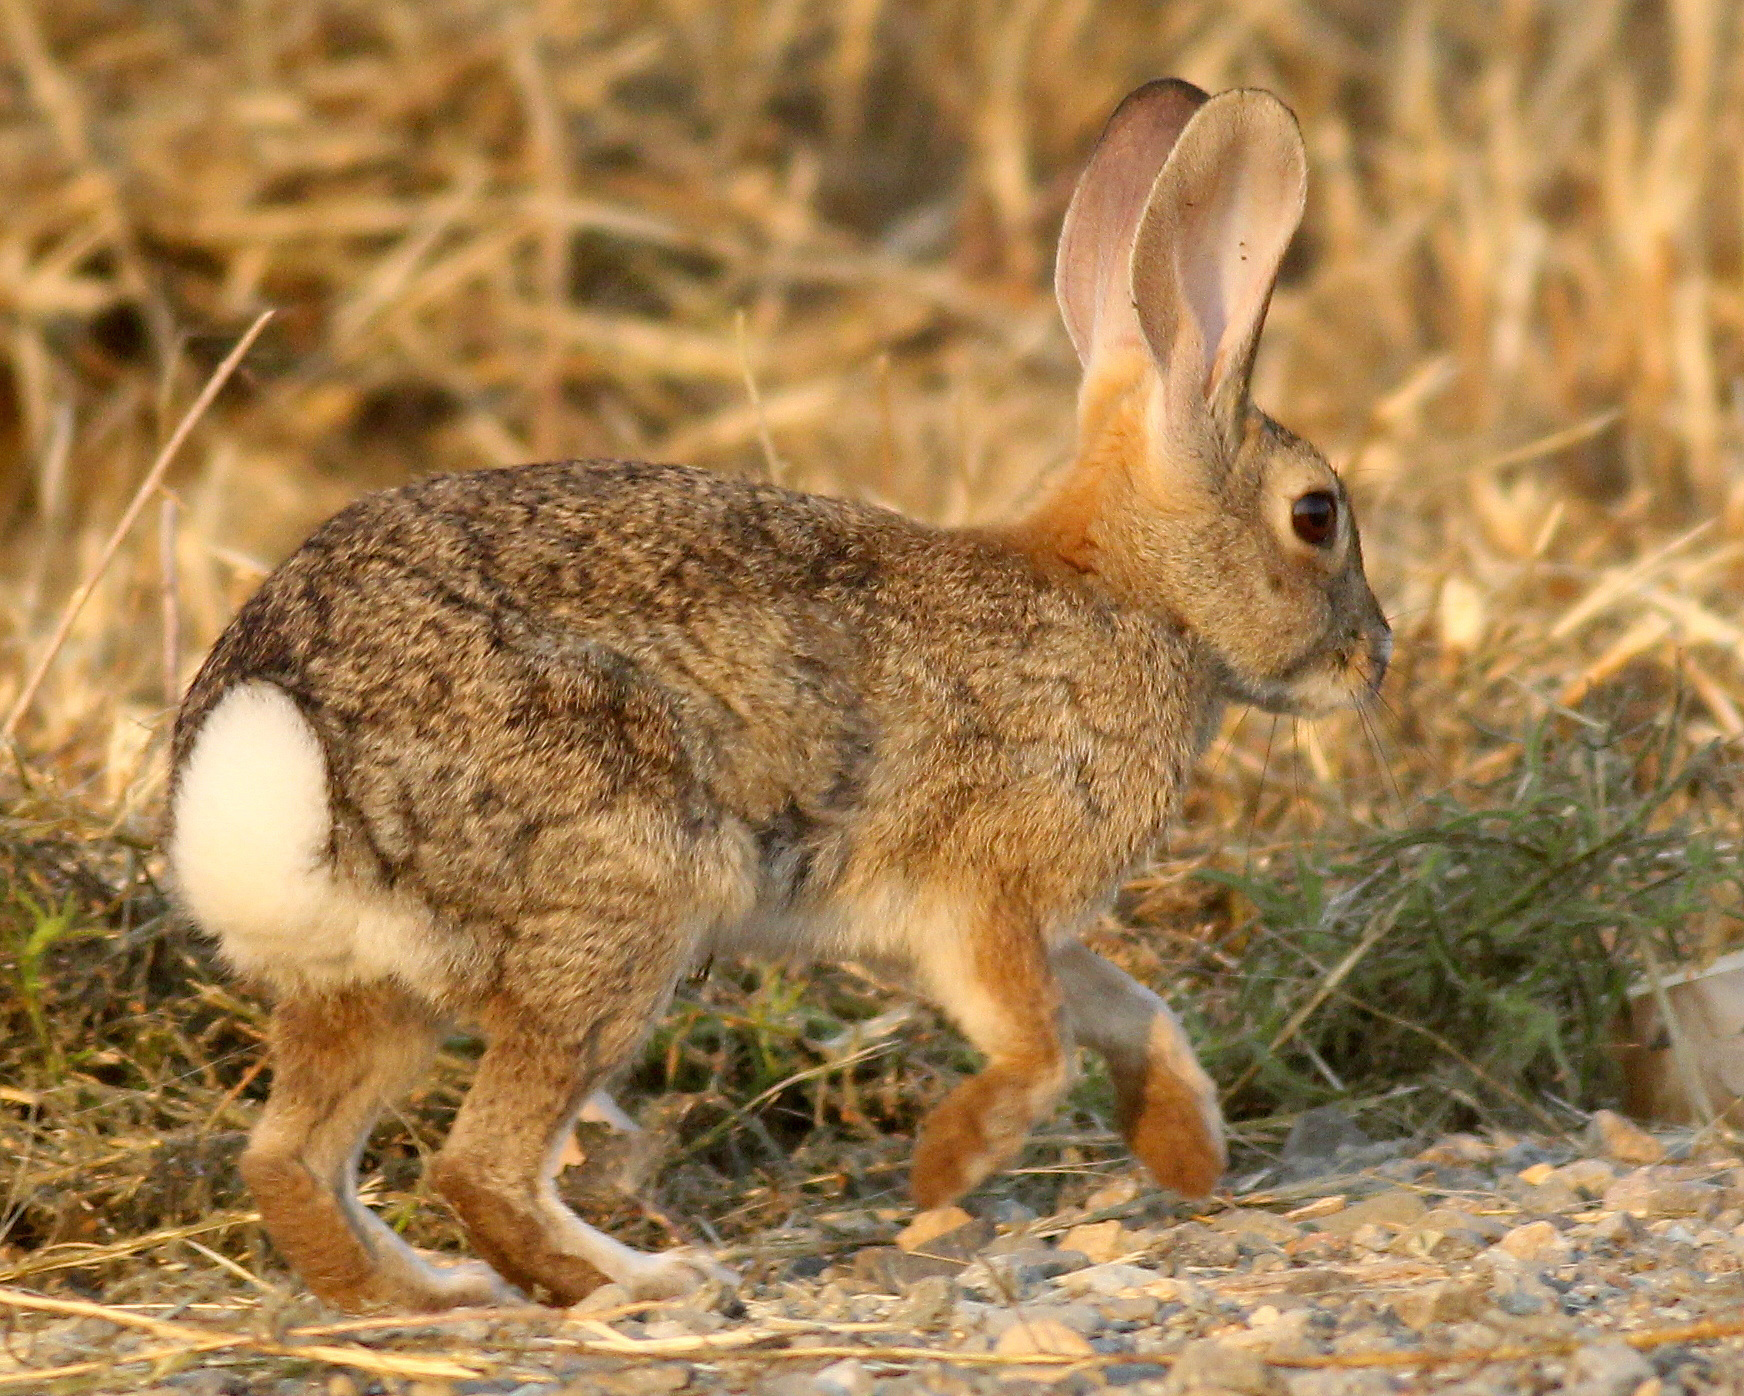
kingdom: Animalia
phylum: Chordata
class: Mammalia
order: Lagomorpha
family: Leporidae
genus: Sylvilagus
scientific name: Sylvilagus audubonii
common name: Desert cottontail
